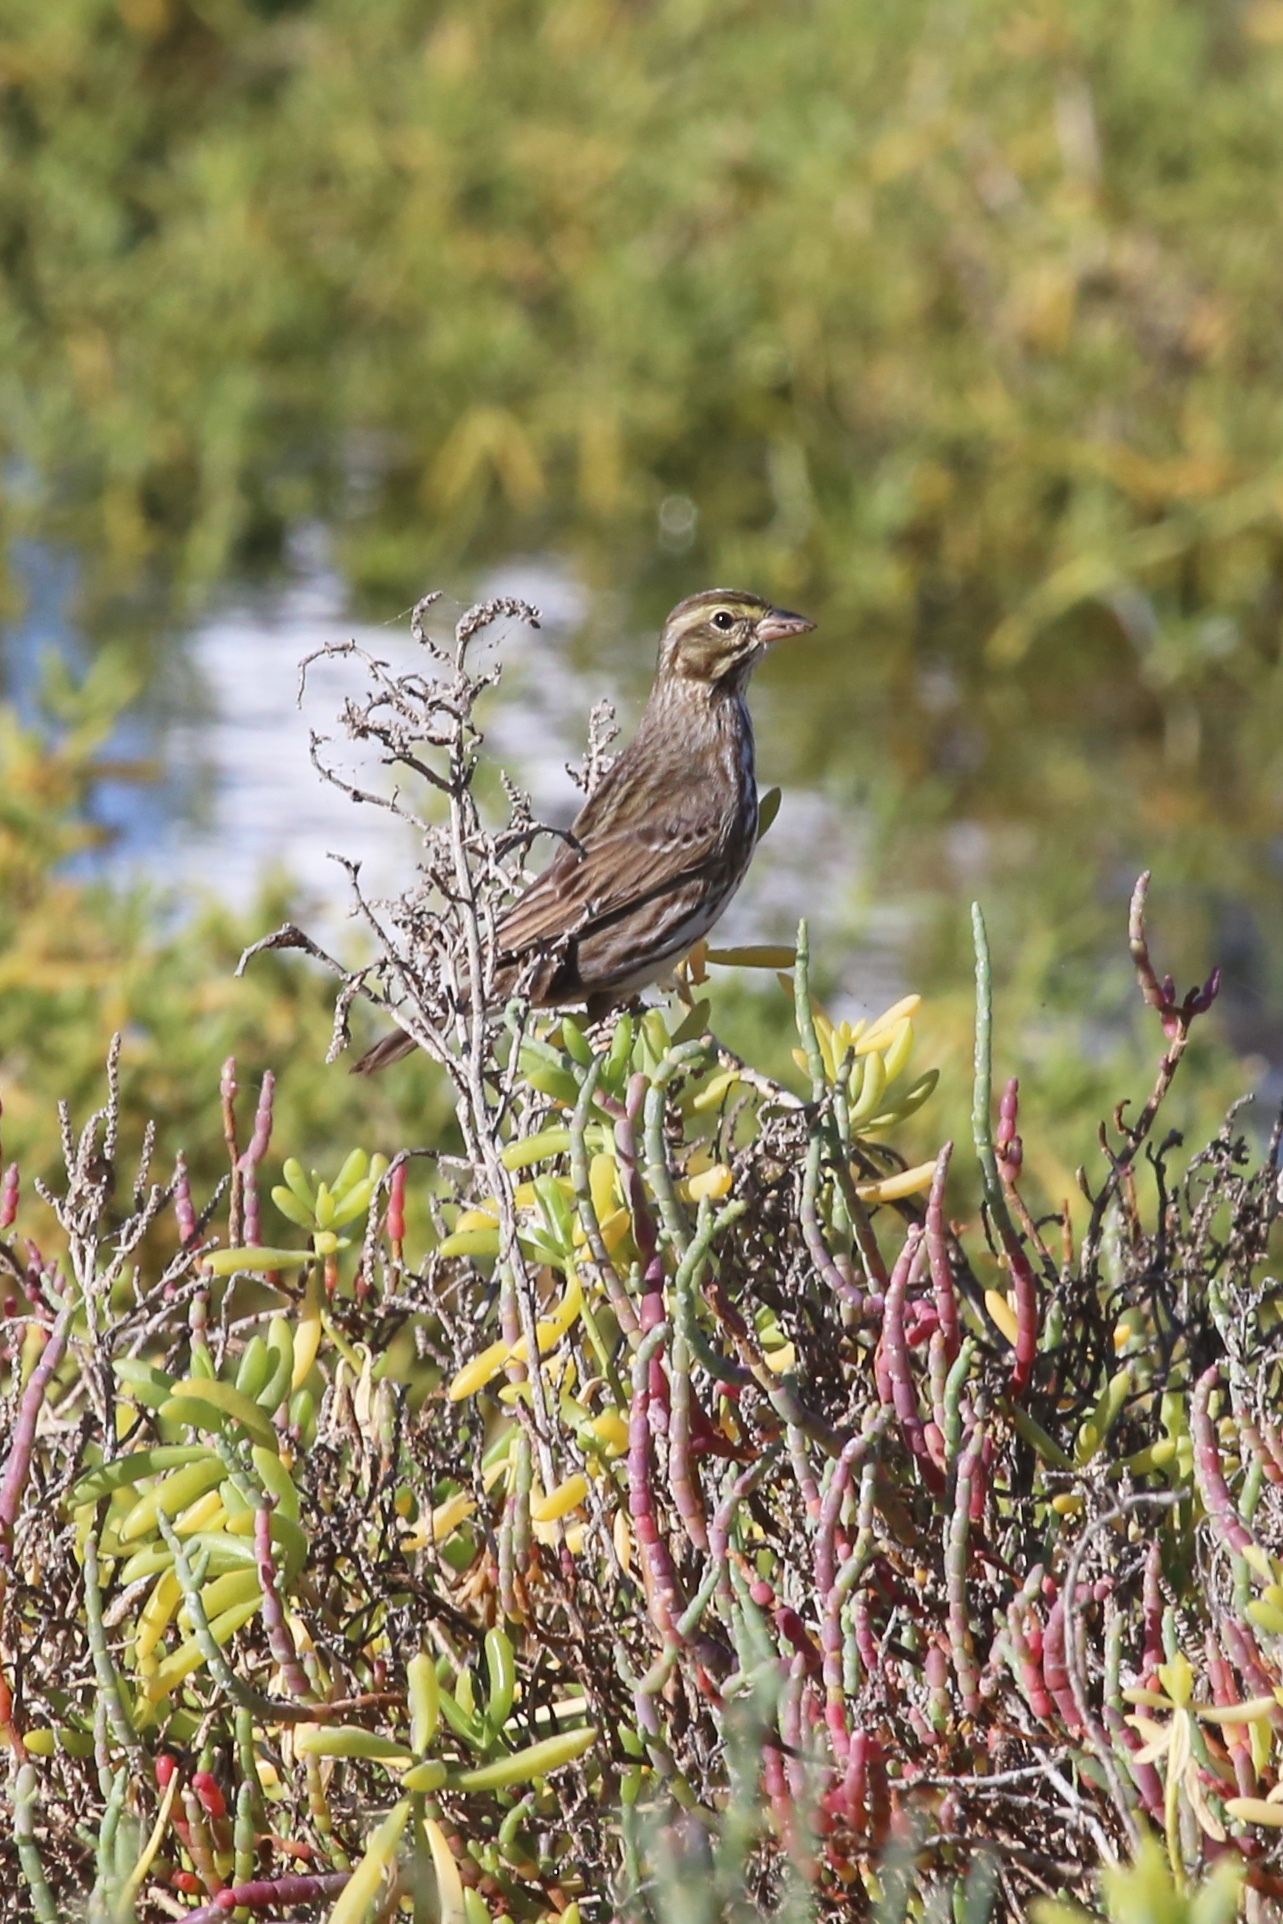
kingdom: Animalia
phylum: Chordata
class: Aves
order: Passeriformes
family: Passerellidae
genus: Passerculus
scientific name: Passerculus sandwichensis
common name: Savannah sparrow
